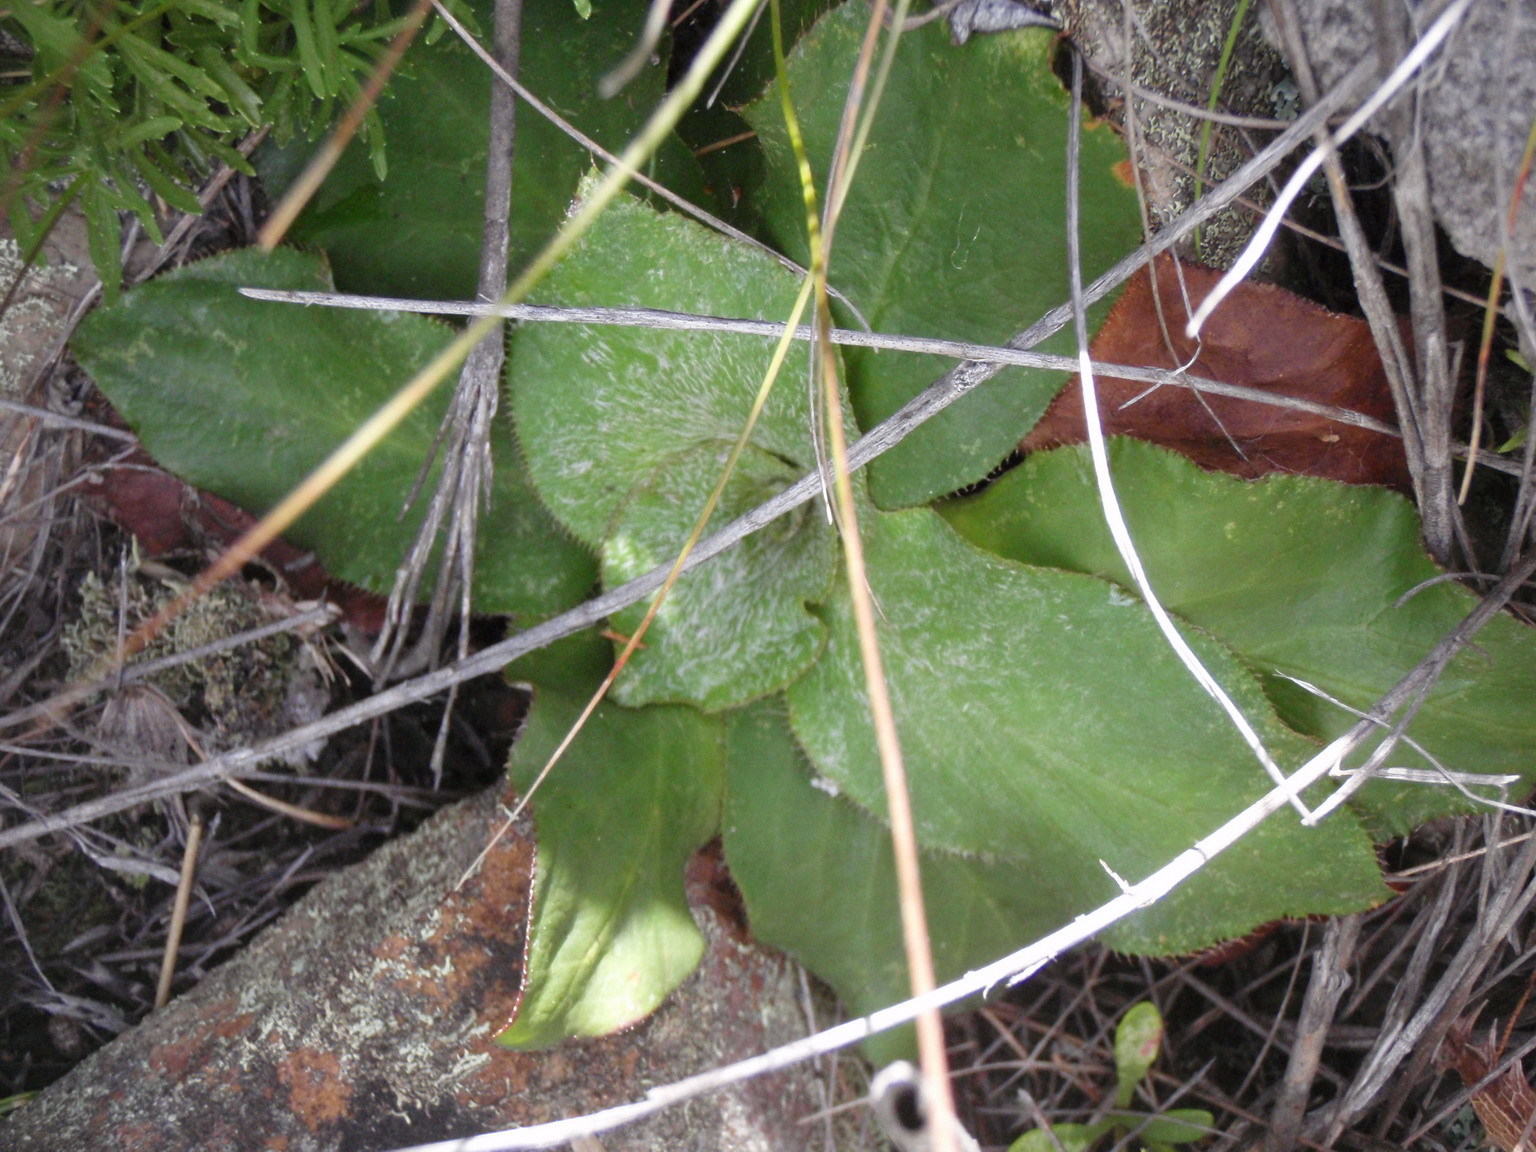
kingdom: Plantae
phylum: Tracheophyta
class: Magnoliopsida
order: Apiales
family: Apiaceae
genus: Hermas
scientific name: Hermas ciliata
